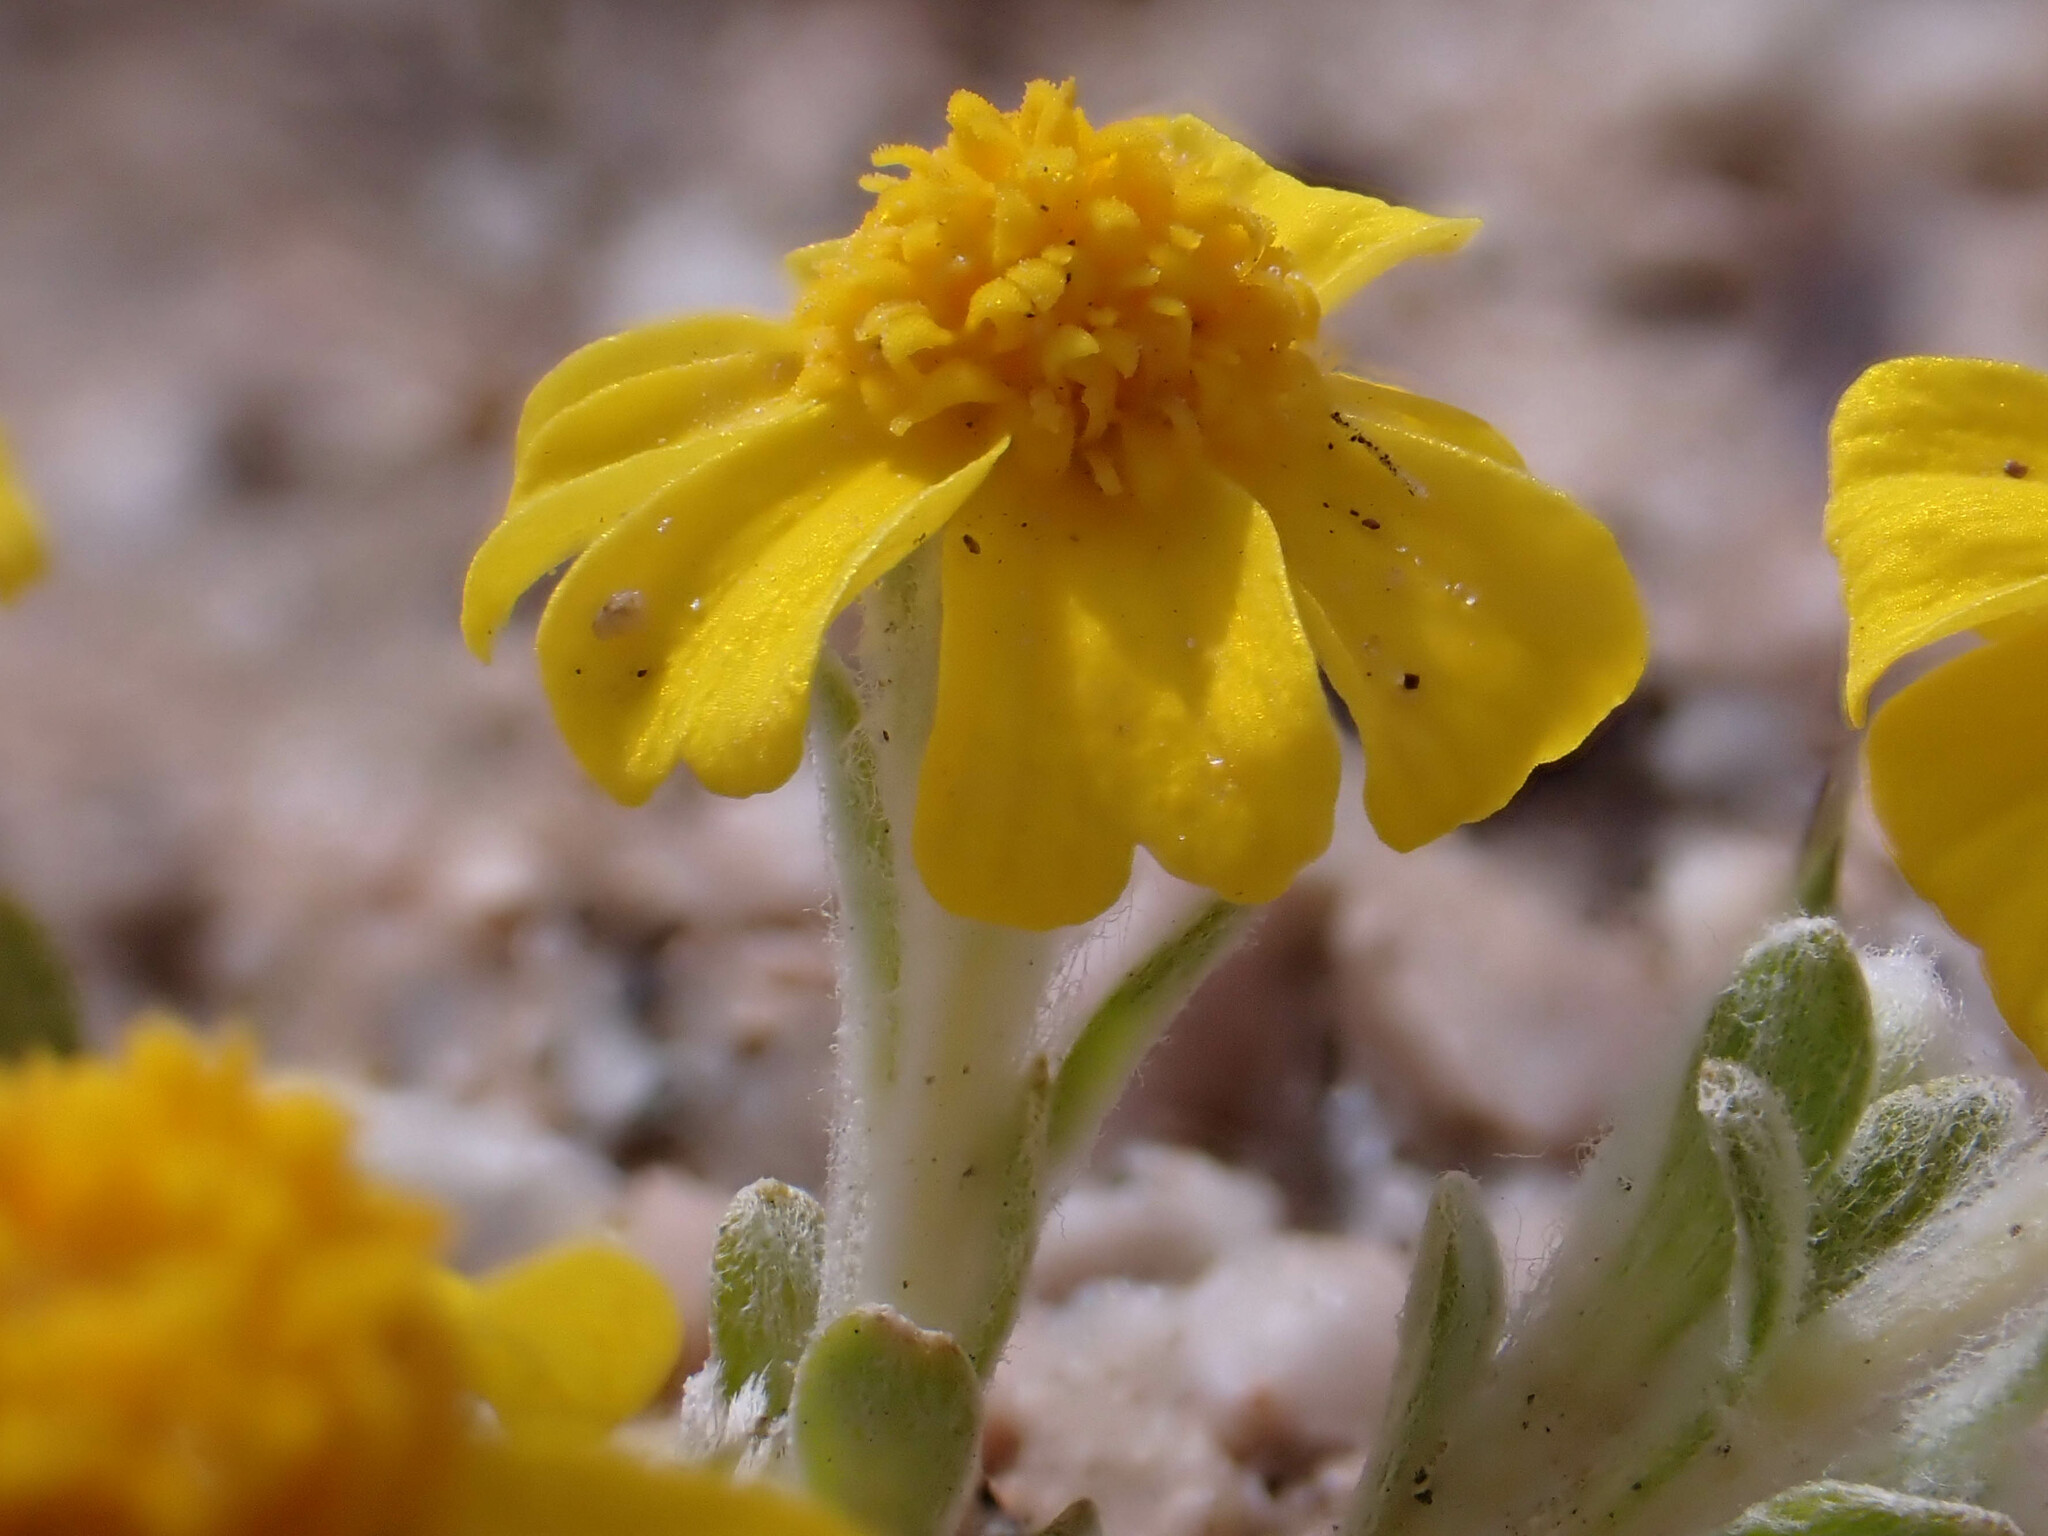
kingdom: Plantae
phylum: Tracheophyta
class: Magnoliopsida
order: Asterales
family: Asteraceae
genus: Eriophyllum
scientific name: Eriophyllum wallacei
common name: Wallace's woolly daisy
